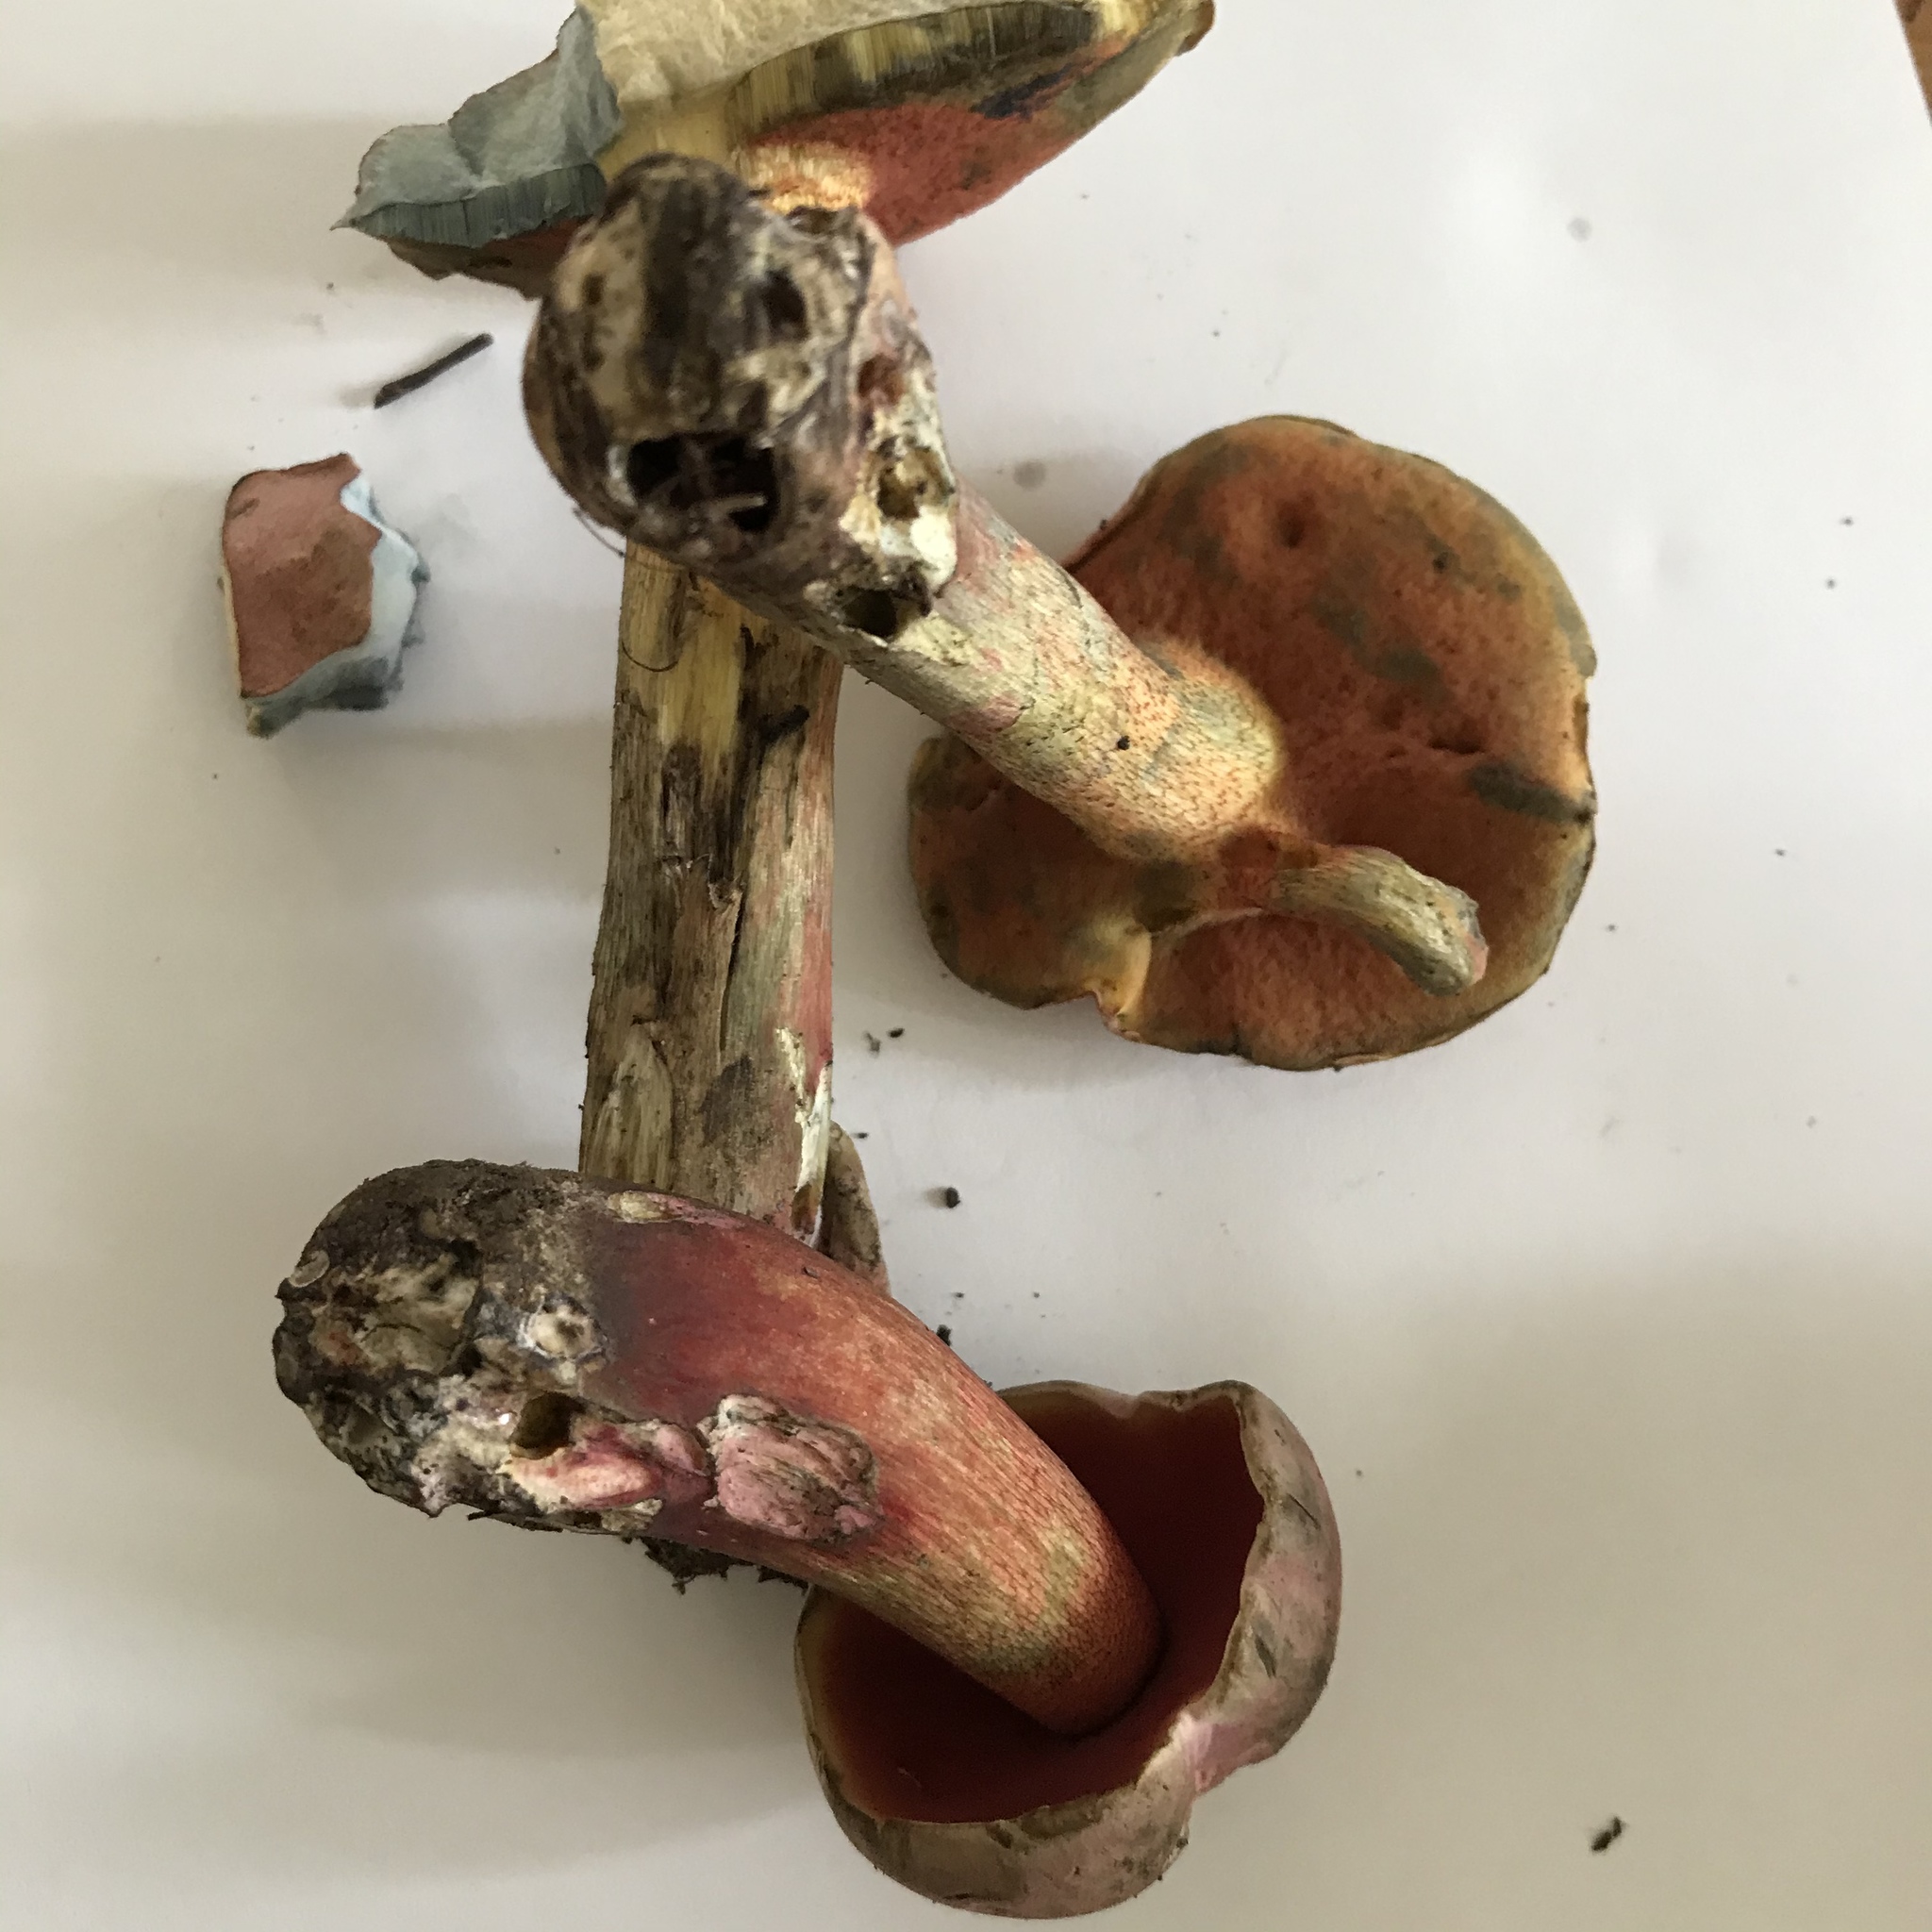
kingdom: Fungi
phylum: Basidiomycota
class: Agaricomycetes
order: Boletales
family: Boletaceae
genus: Rubroboletus
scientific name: Rubroboletus rhodosanguineus
